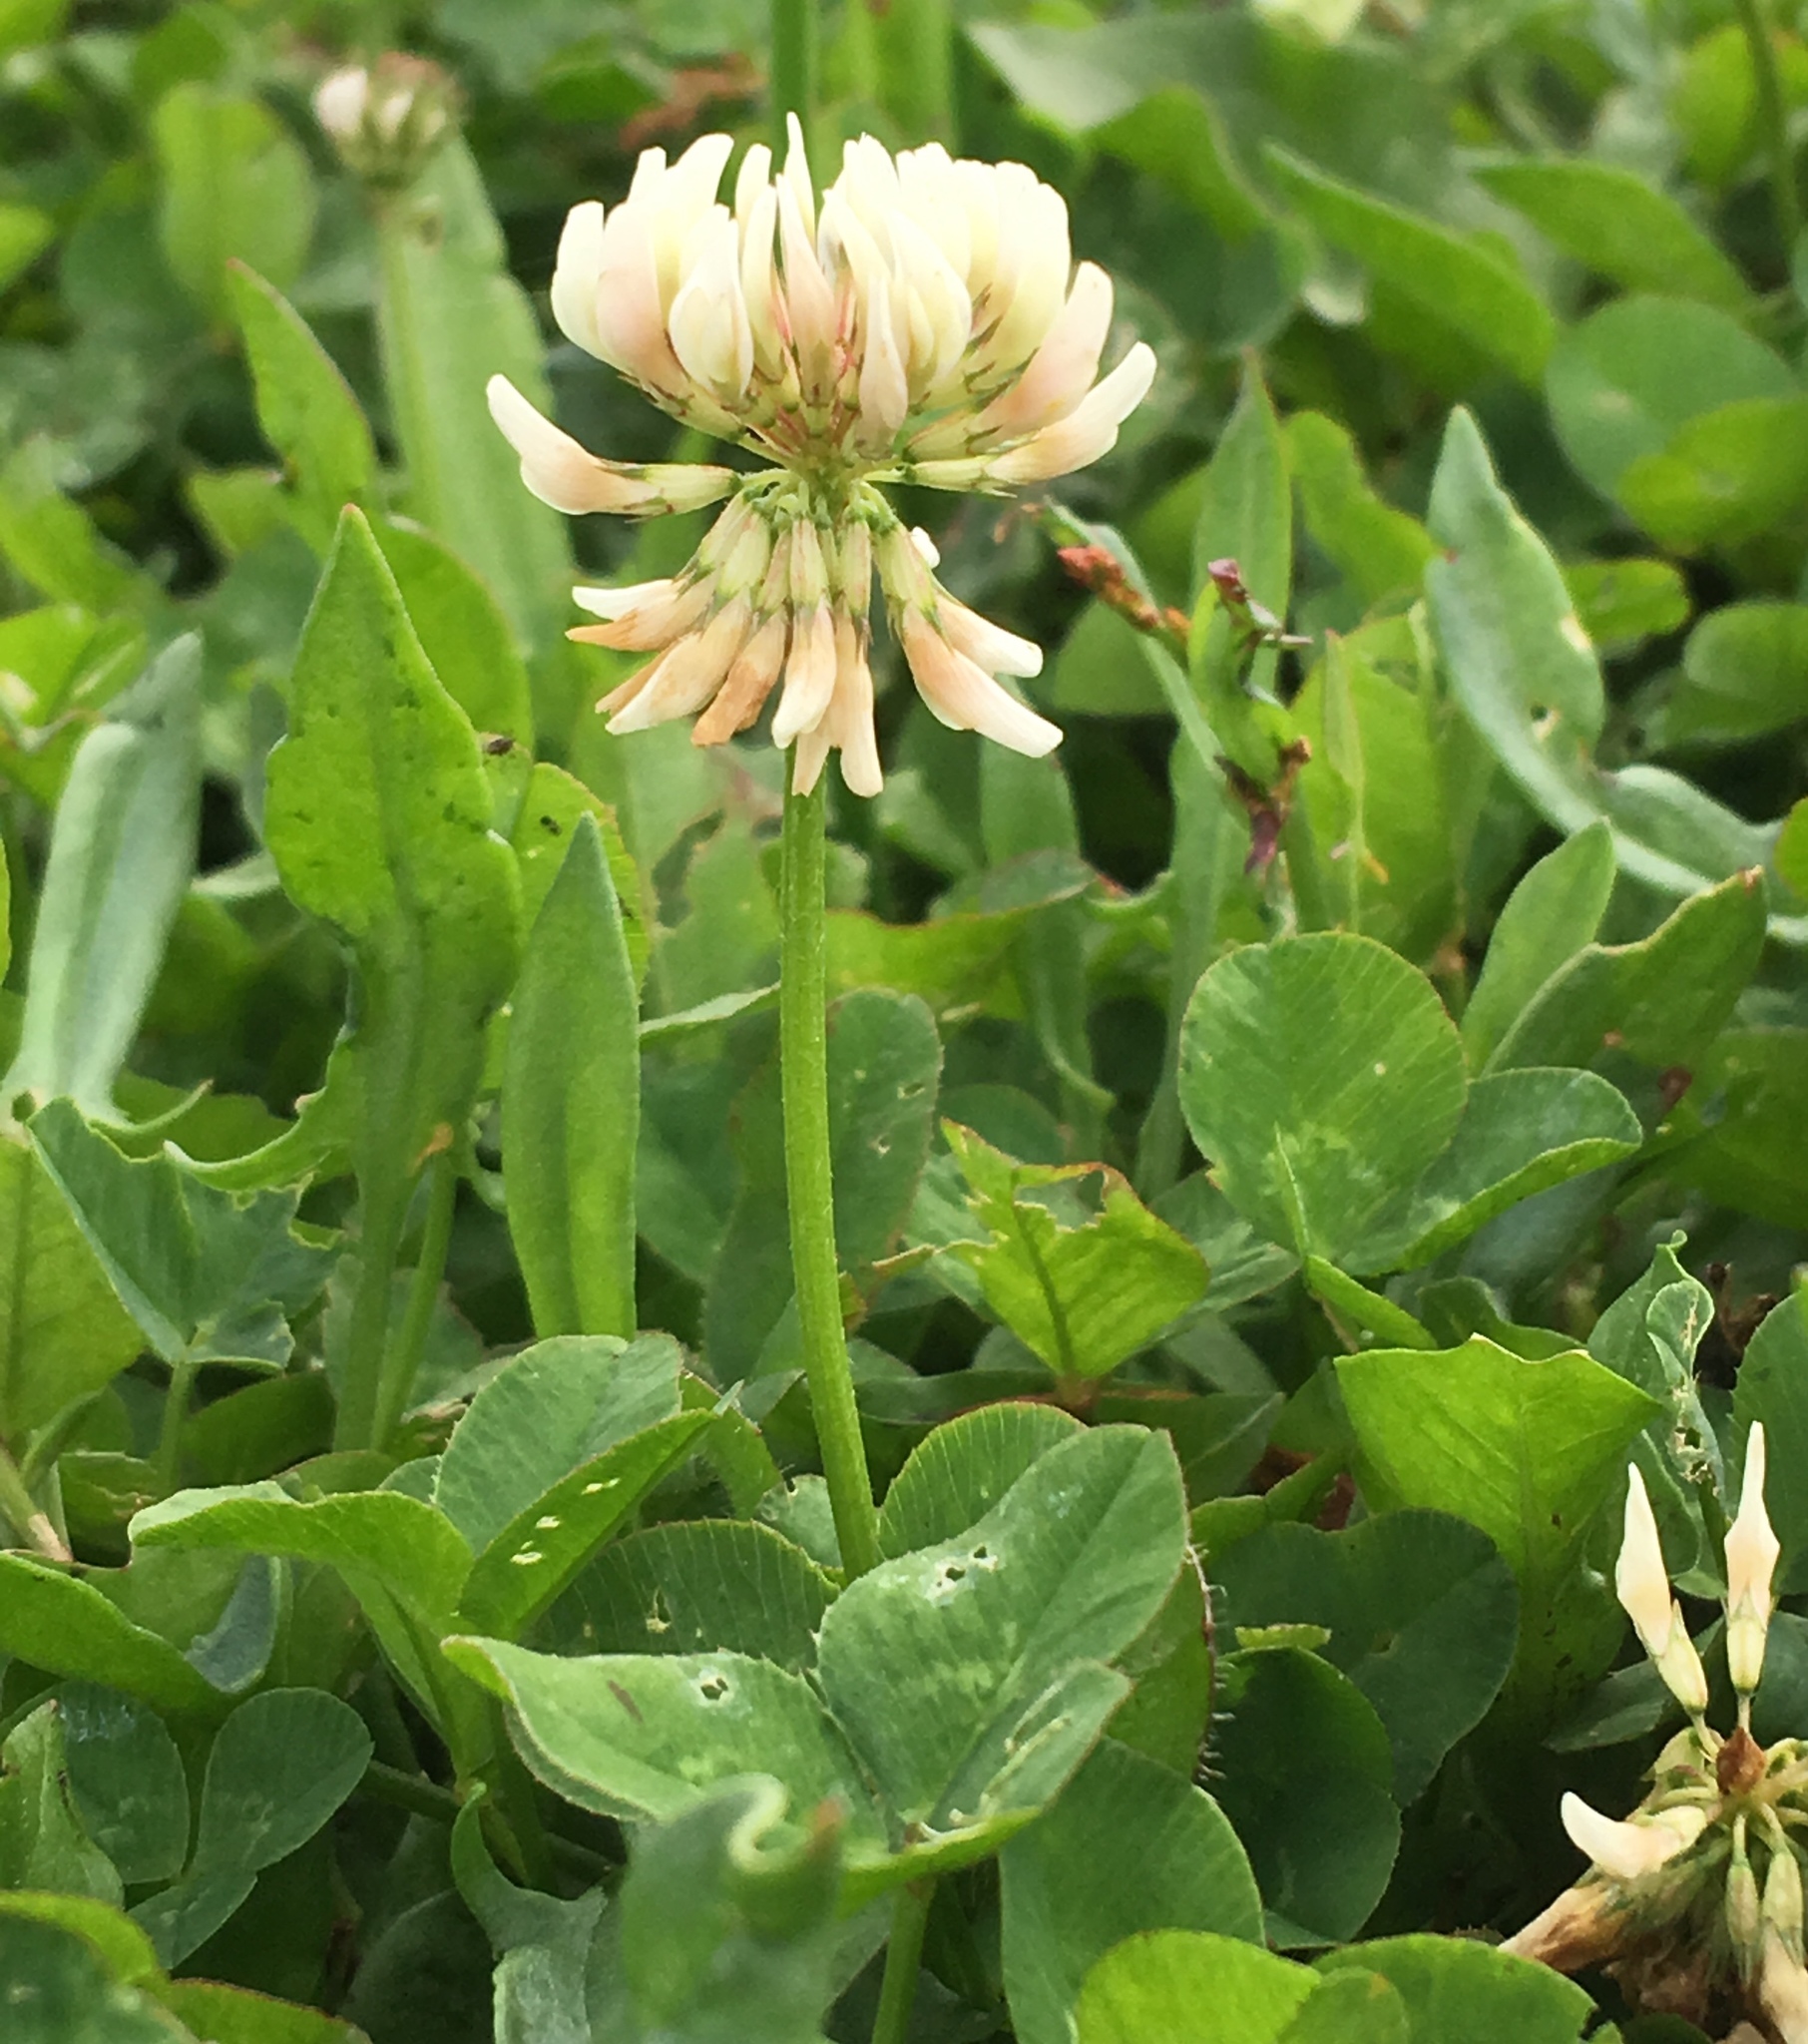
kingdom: Plantae
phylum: Tracheophyta
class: Magnoliopsida
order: Fabales
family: Fabaceae
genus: Trifolium
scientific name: Trifolium repens
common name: White clover
